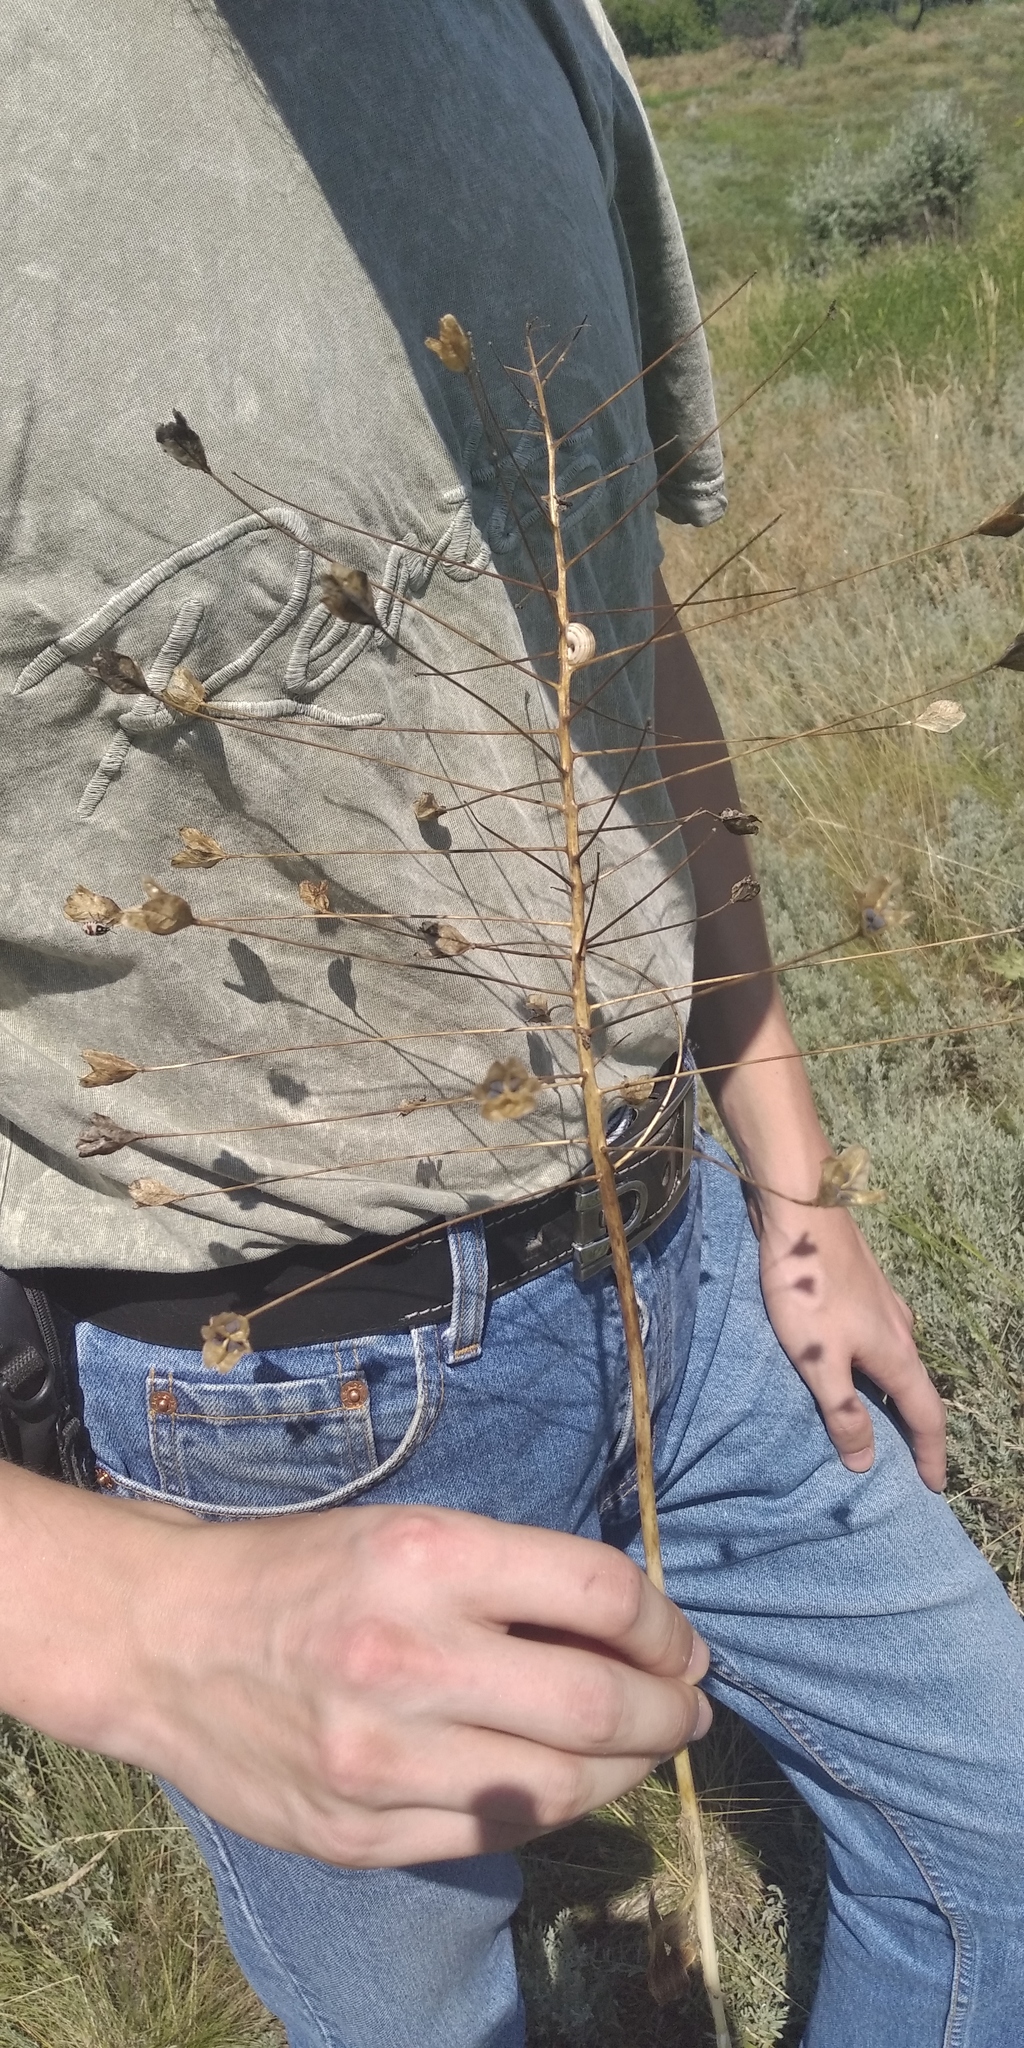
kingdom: Plantae
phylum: Tracheophyta
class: Liliopsida
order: Asparagales
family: Asparagaceae
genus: Bellevalia
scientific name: Bellevalia speciosa
